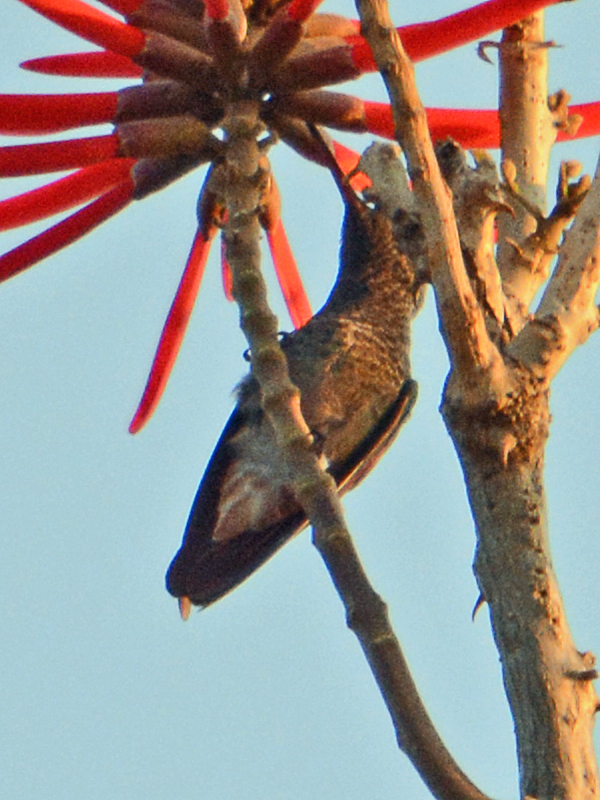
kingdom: Animalia
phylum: Chordata
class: Aves
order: Apodiformes
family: Trochilidae
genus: Saucerottia
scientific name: Saucerottia beryllina
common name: Berylline hummingbird
